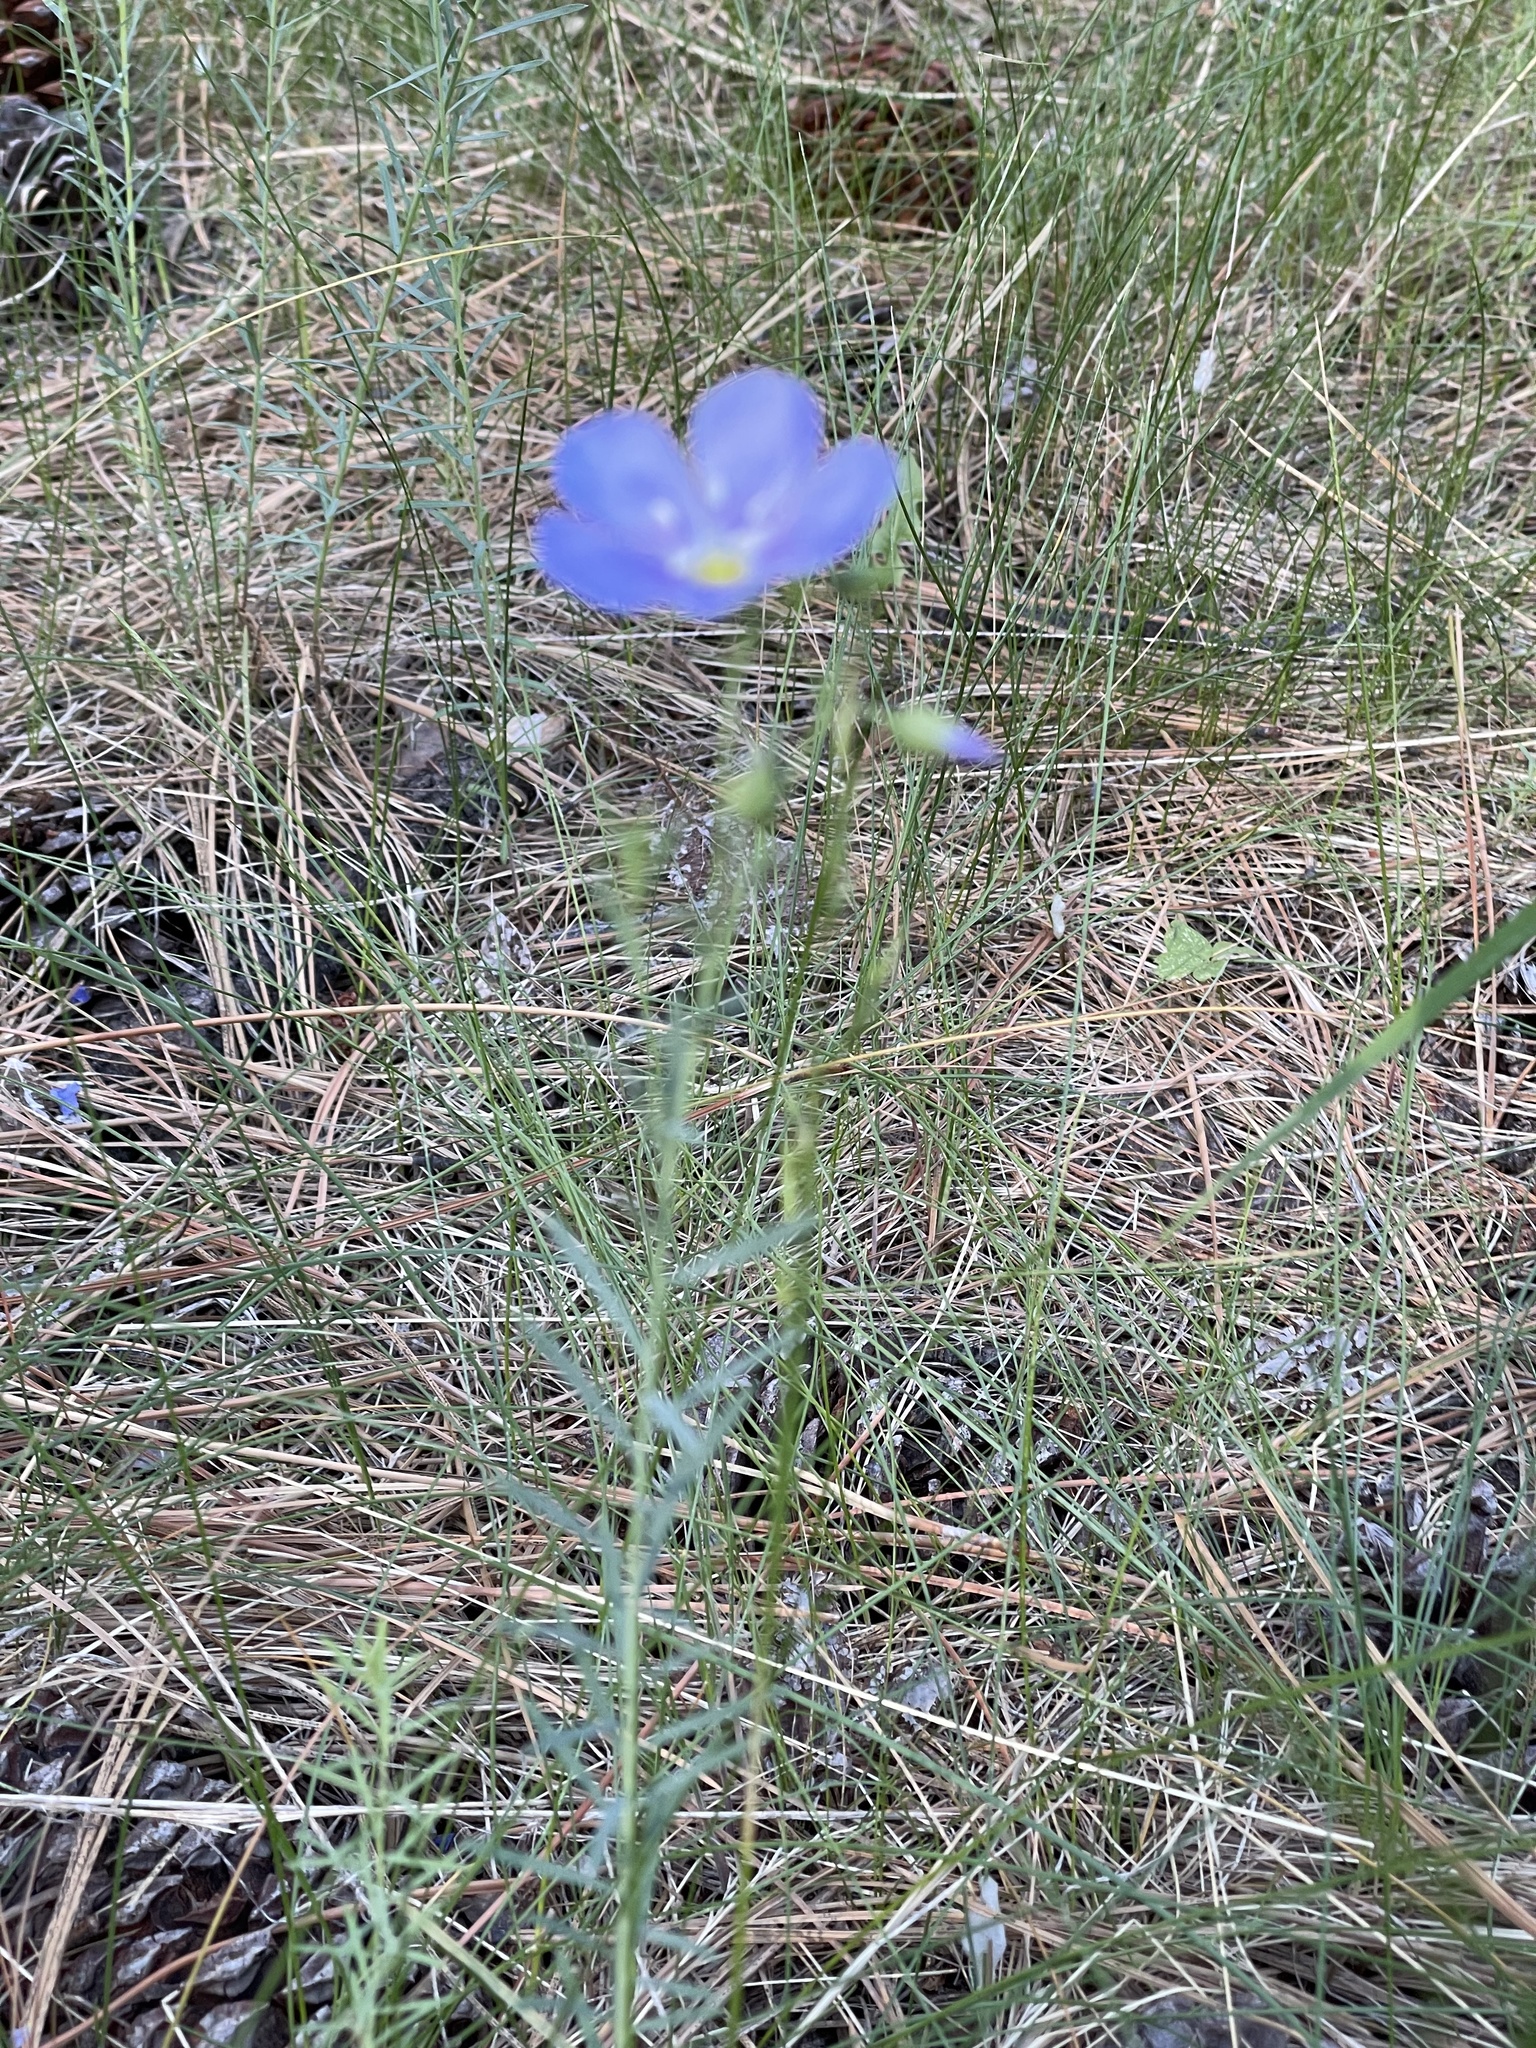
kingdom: Plantae
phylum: Tracheophyta
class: Magnoliopsida
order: Malpighiales
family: Linaceae
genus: Linum
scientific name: Linum lewisii
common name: Prairie flax
